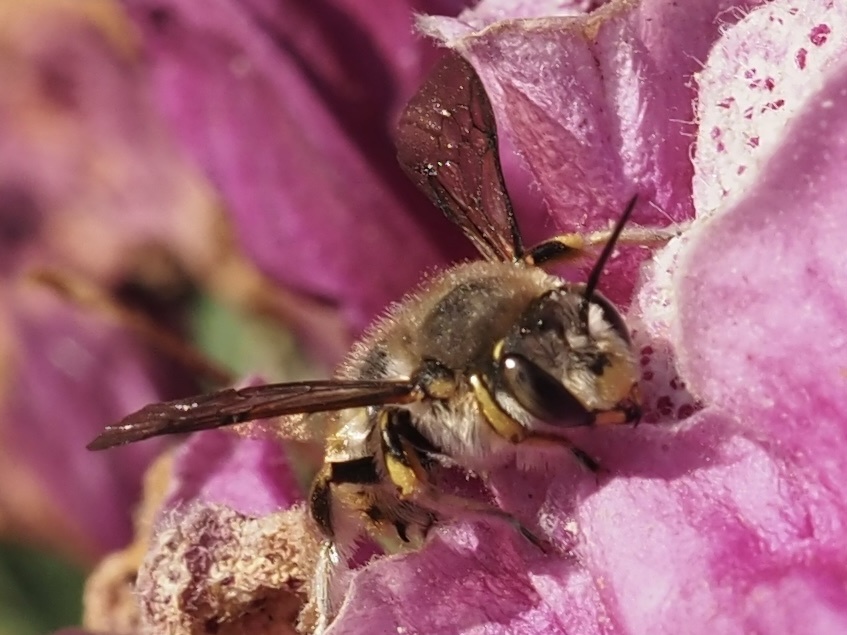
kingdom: Animalia
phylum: Arthropoda
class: Insecta
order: Hymenoptera
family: Megachilidae
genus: Anthidium
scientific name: Anthidium manicatum
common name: Wool carder bee
